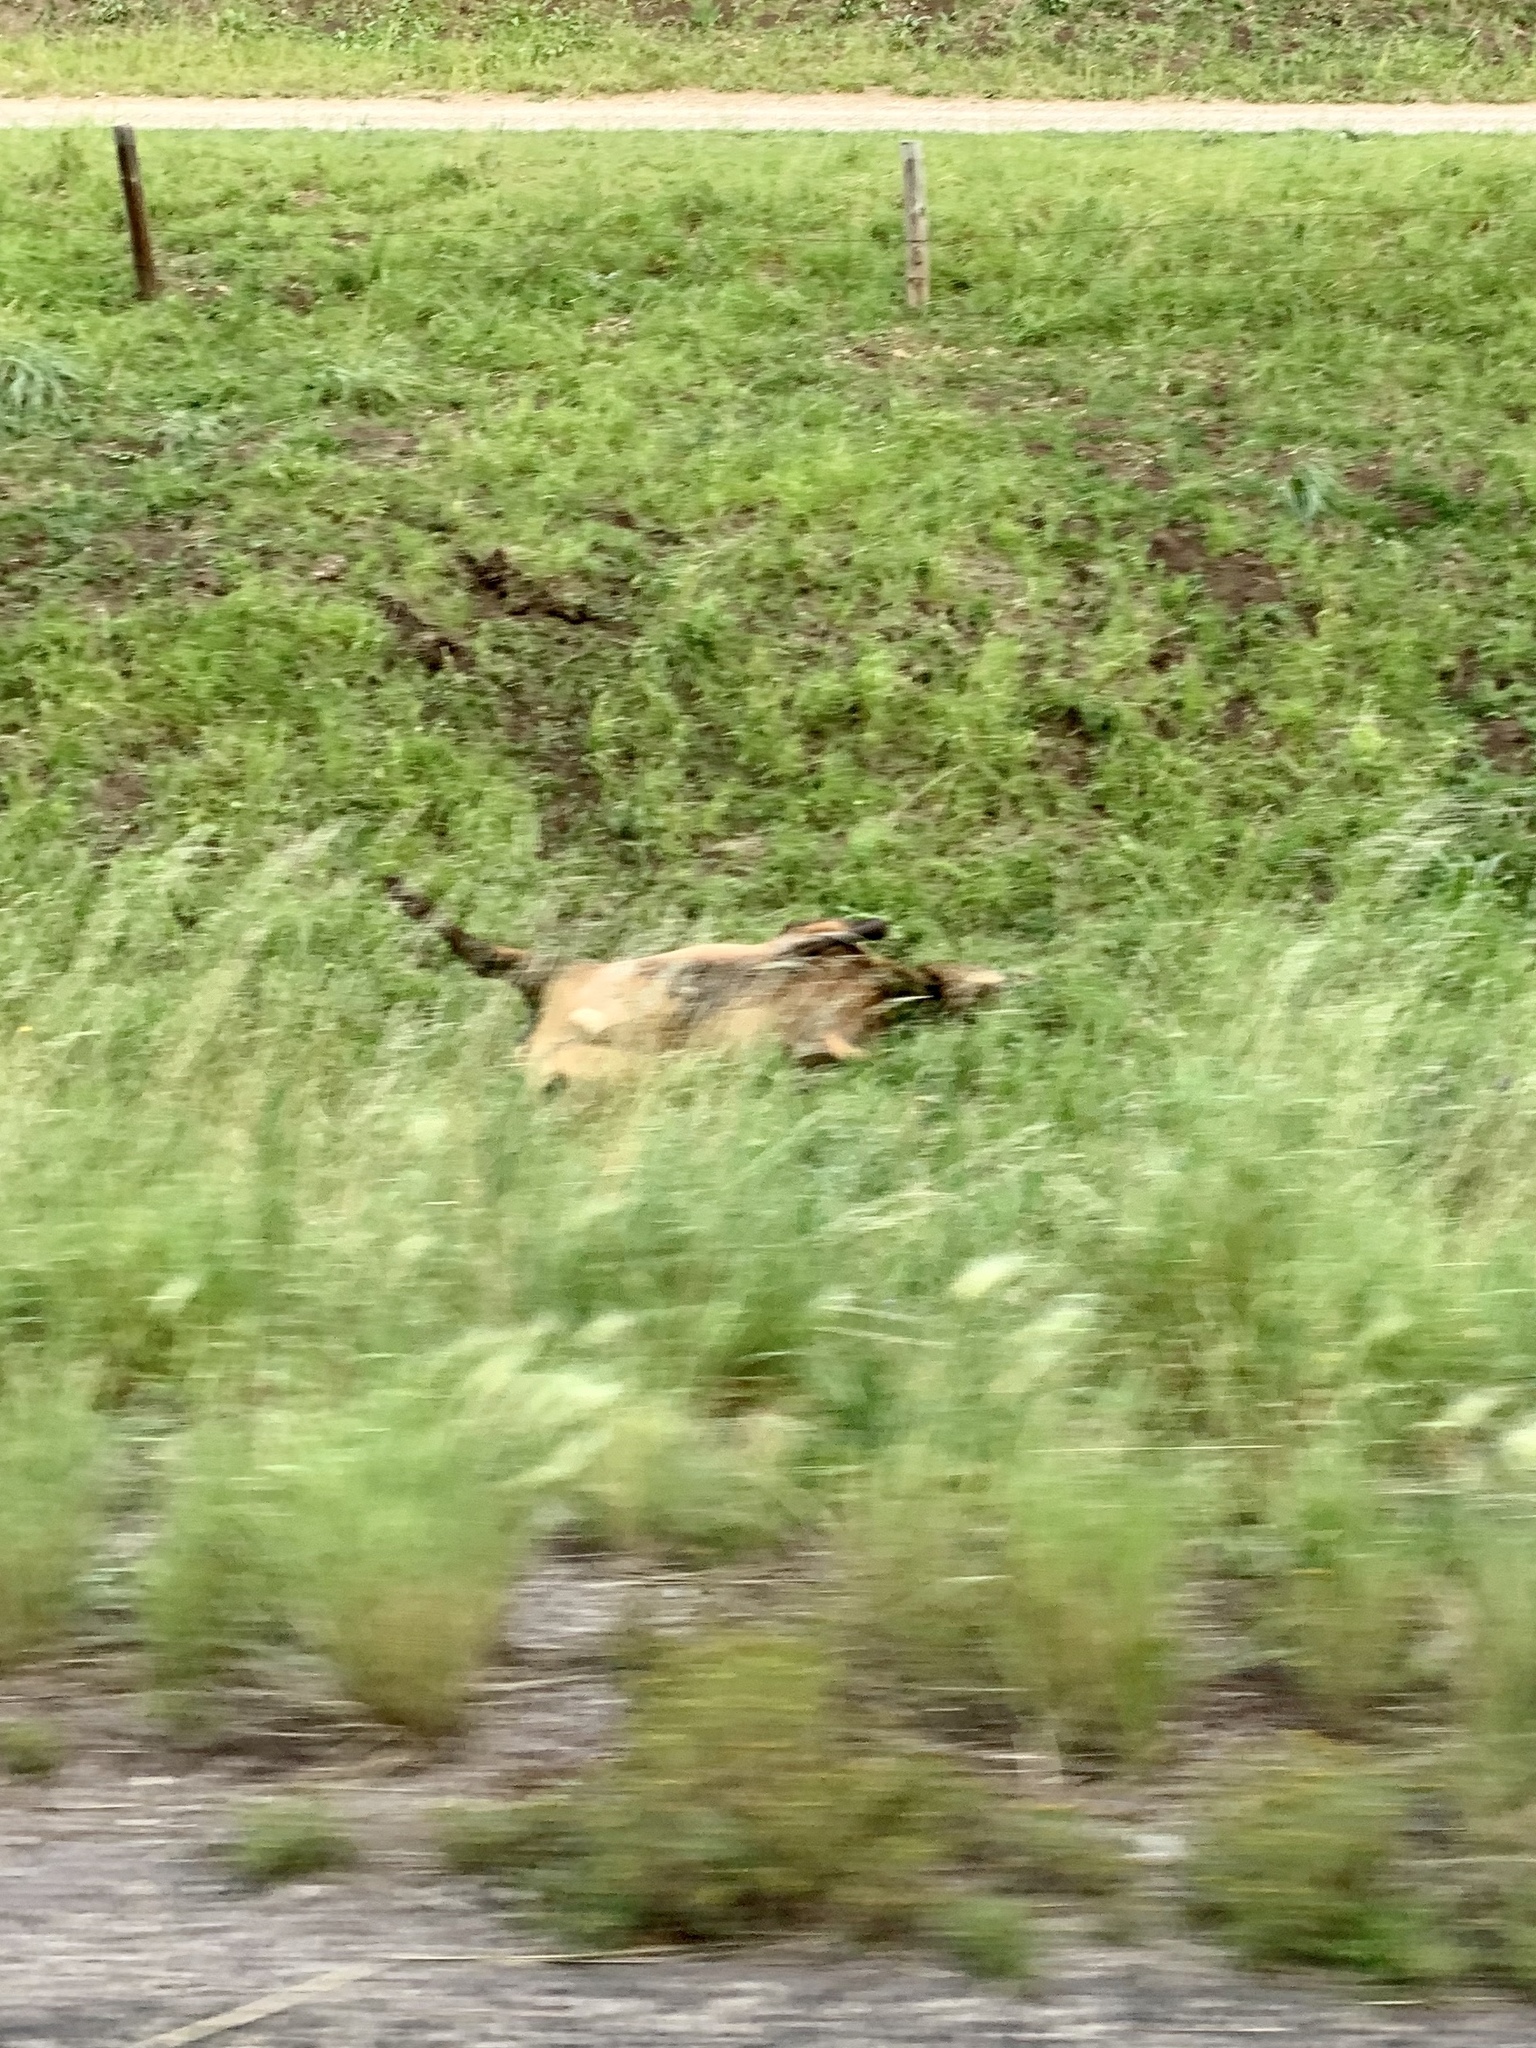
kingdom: Animalia
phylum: Chordata
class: Mammalia
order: Artiodactyla
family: Cervidae
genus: Cervus
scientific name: Cervus elaphus
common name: Red deer
